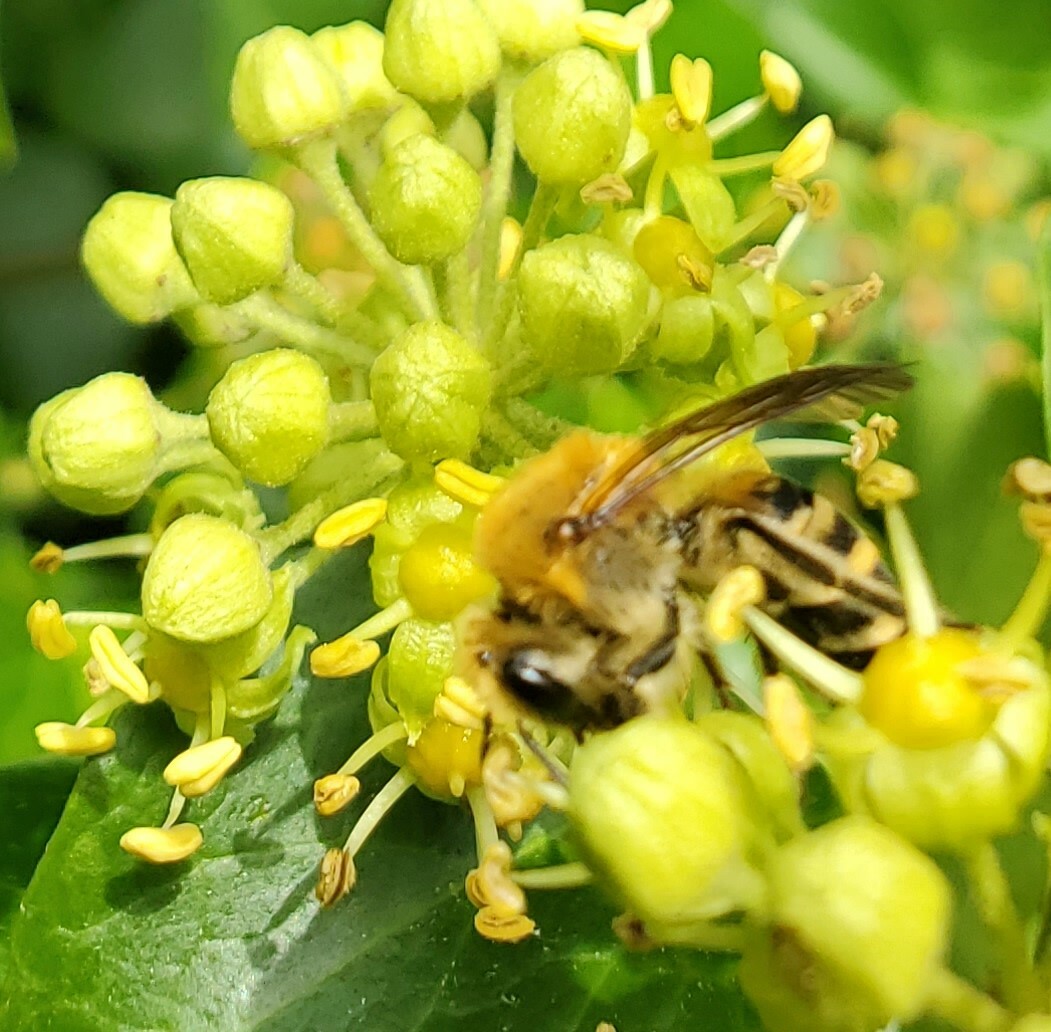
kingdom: Animalia
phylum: Arthropoda
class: Insecta
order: Hymenoptera
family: Colletidae
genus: Colletes
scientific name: Colletes hederae
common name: Ivy bee
